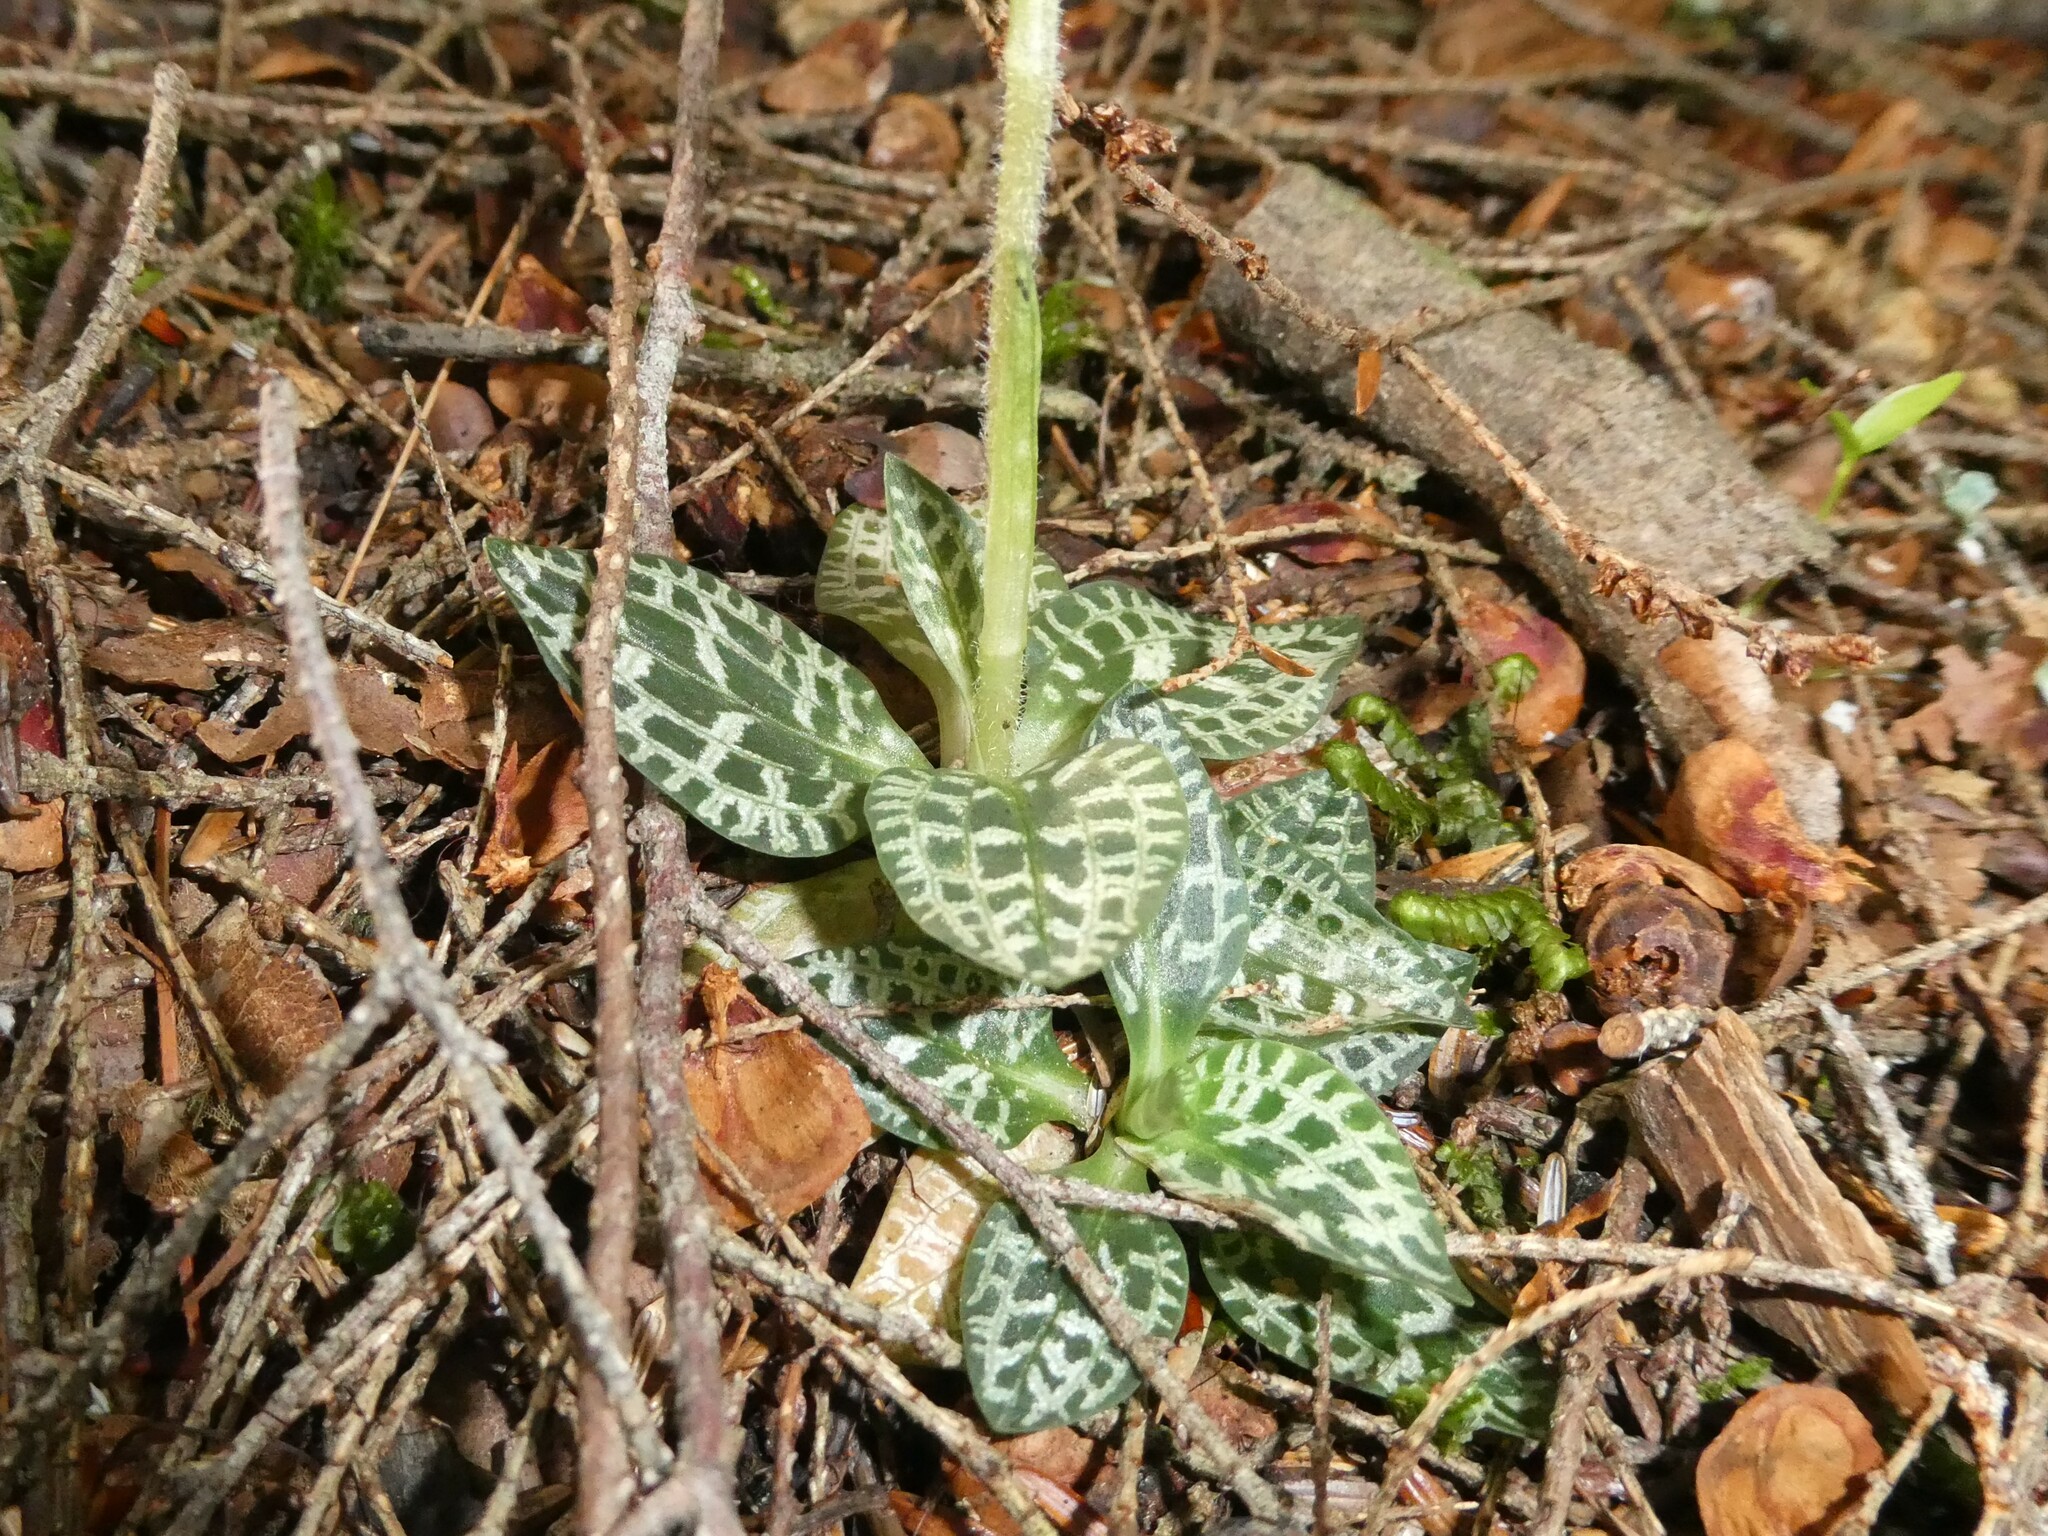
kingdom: Plantae
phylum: Tracheophyta
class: Liliopsida
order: Asparagales
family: Orchidaceae
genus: Goodyera
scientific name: Goodyera repens
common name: Creeping lady's-tresses
